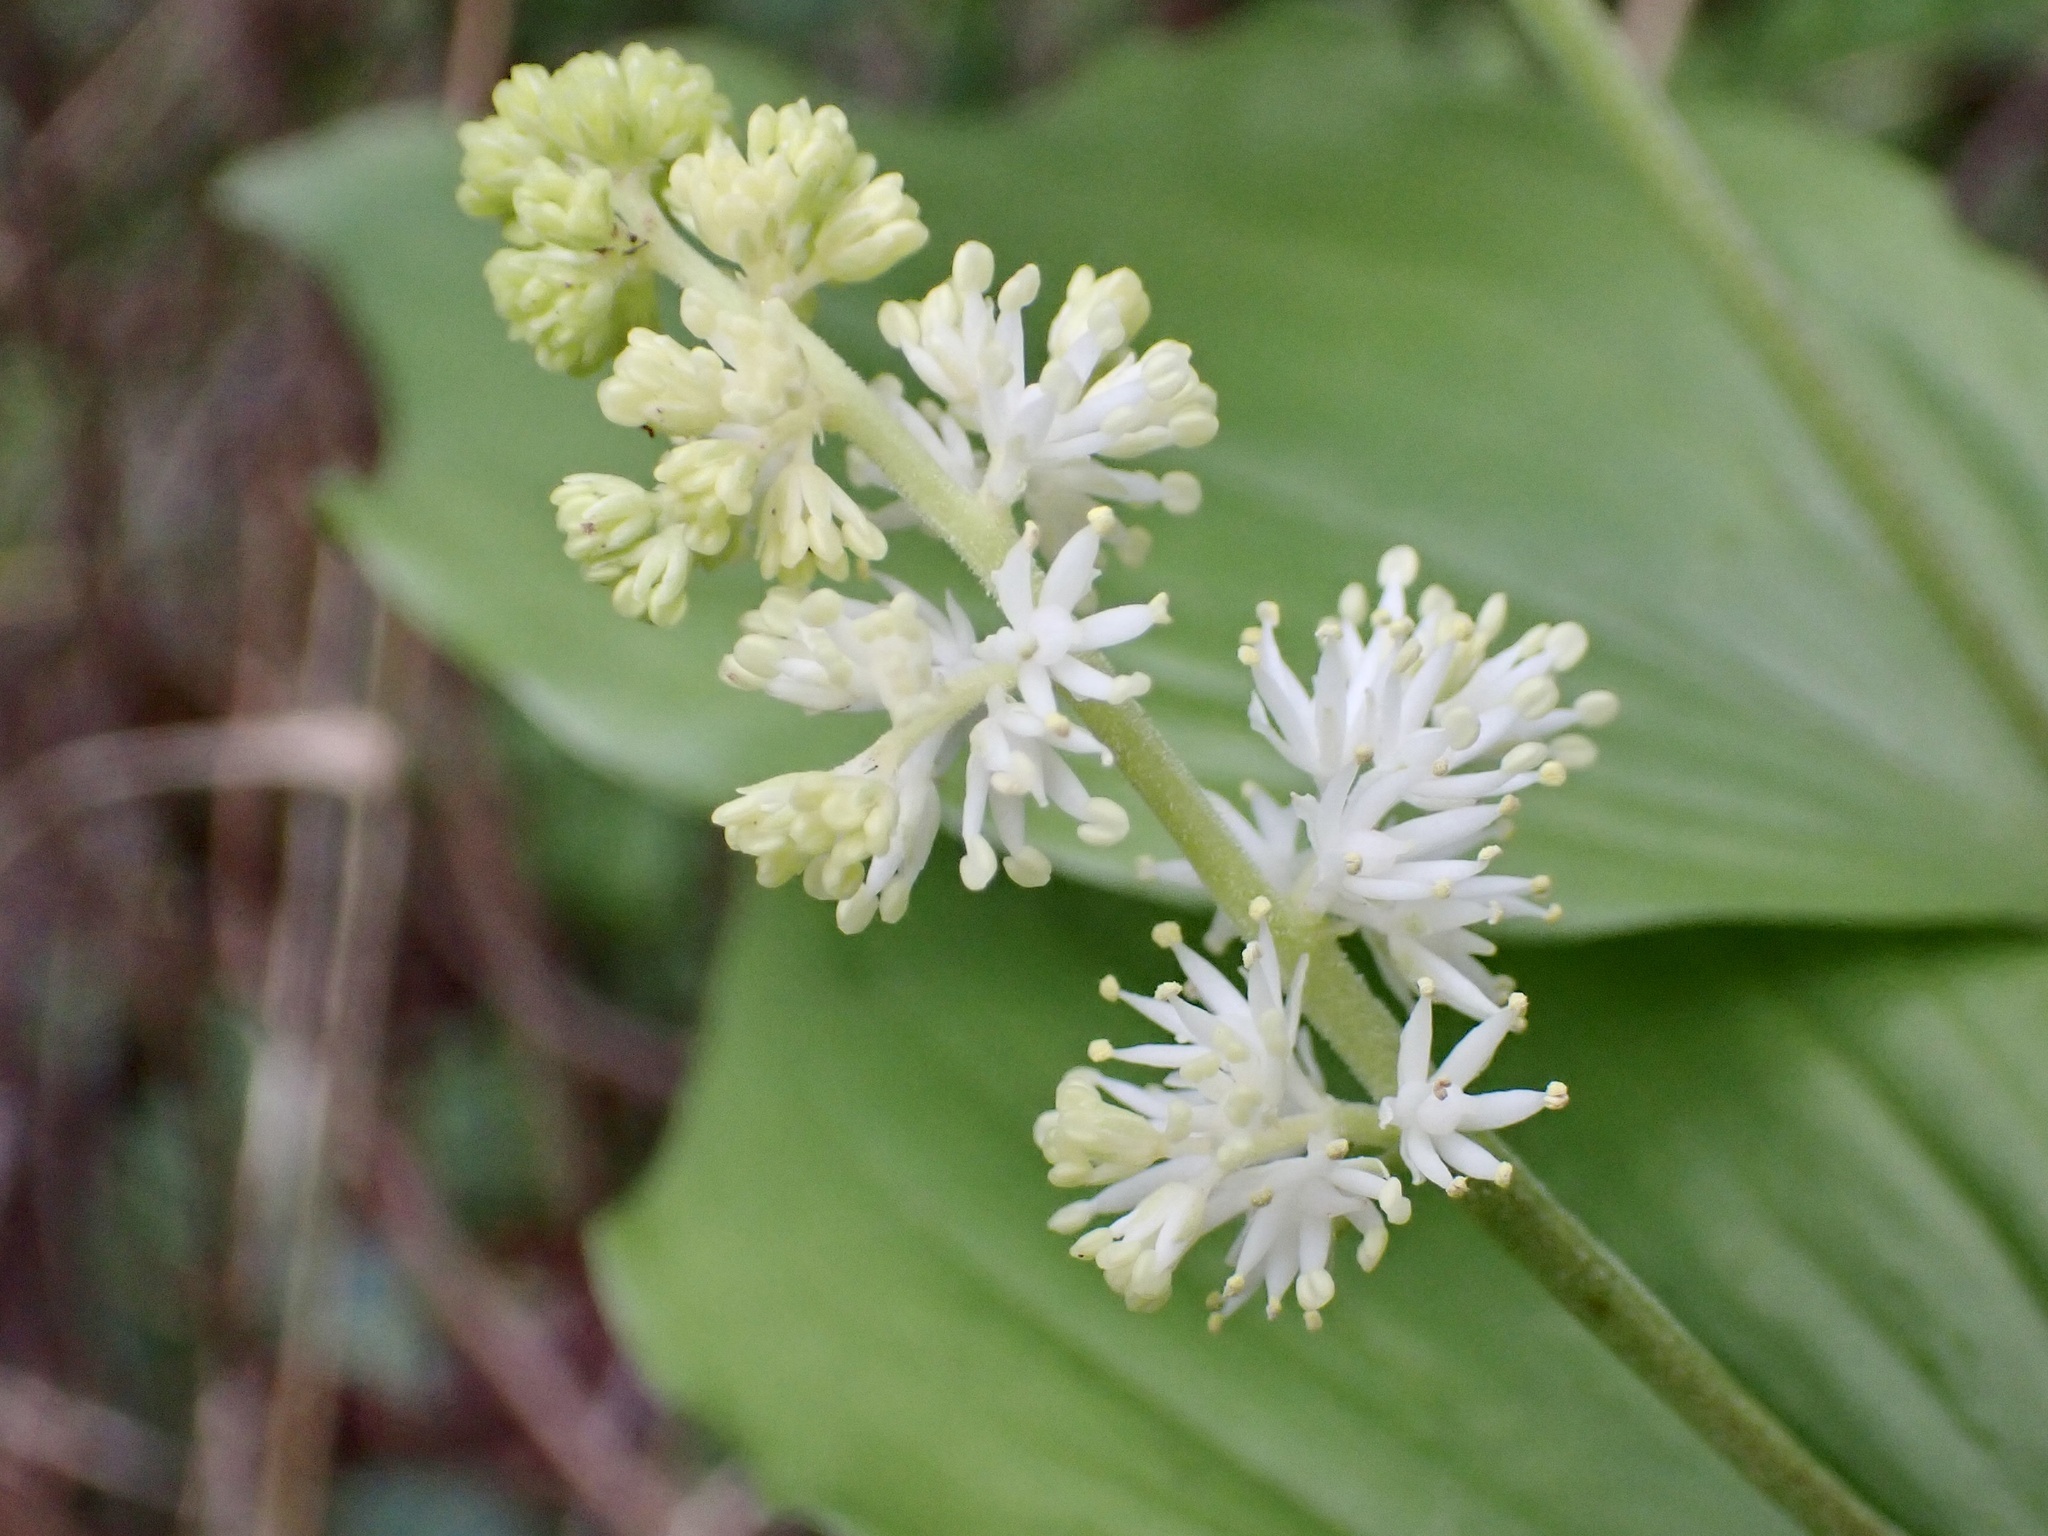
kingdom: Plantae
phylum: Tracheophyta
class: Liliopsida
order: Asparagales
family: Asparagaceae
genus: Maianthemum
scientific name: Maianthemum racemosum
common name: False spikenard
